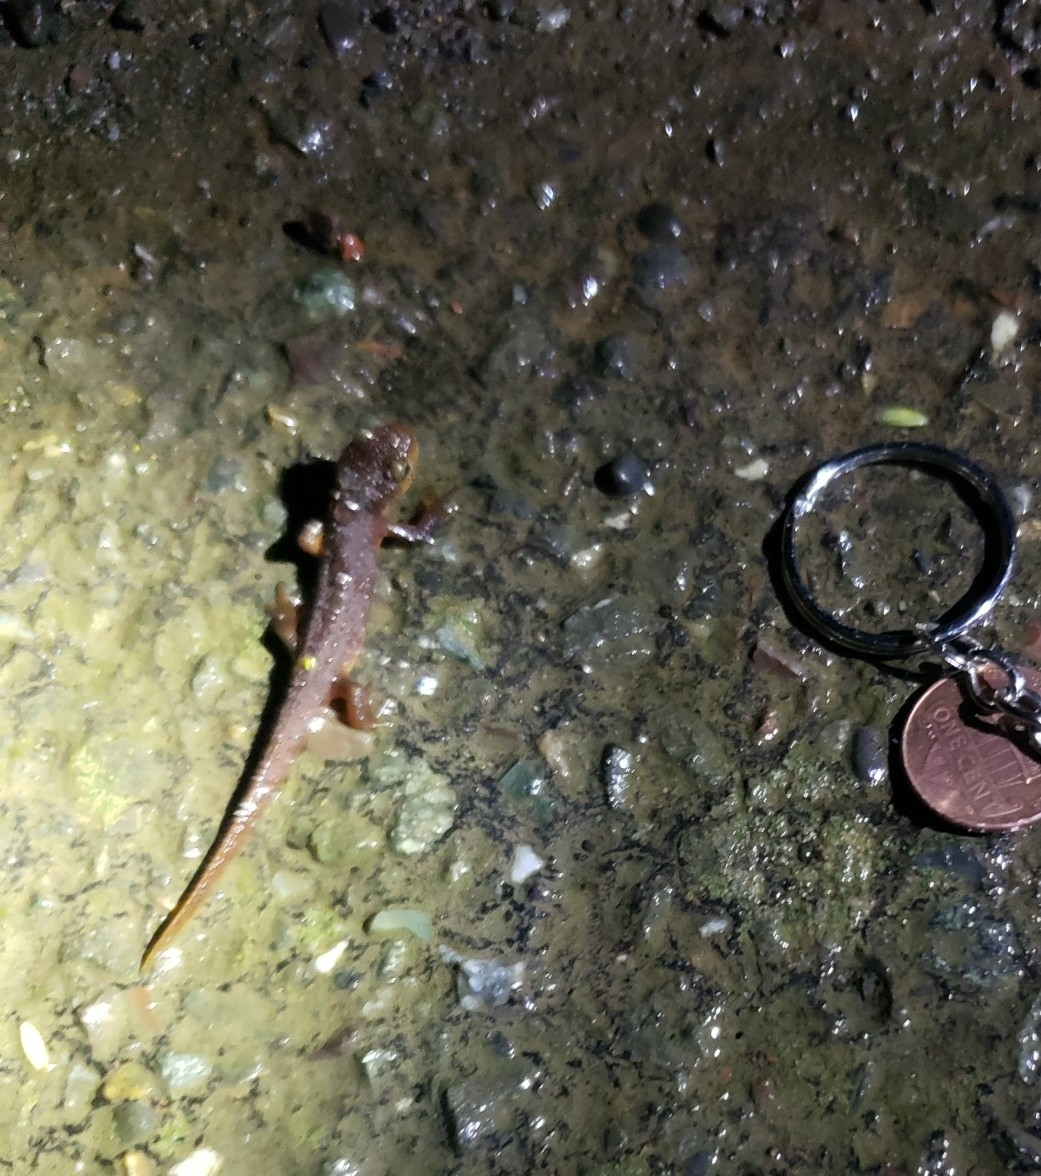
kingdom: Animalia
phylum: Chordata
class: Amphibia
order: Caudata
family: Salamandridae
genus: Taricha
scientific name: Taricha torosa
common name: California newt
